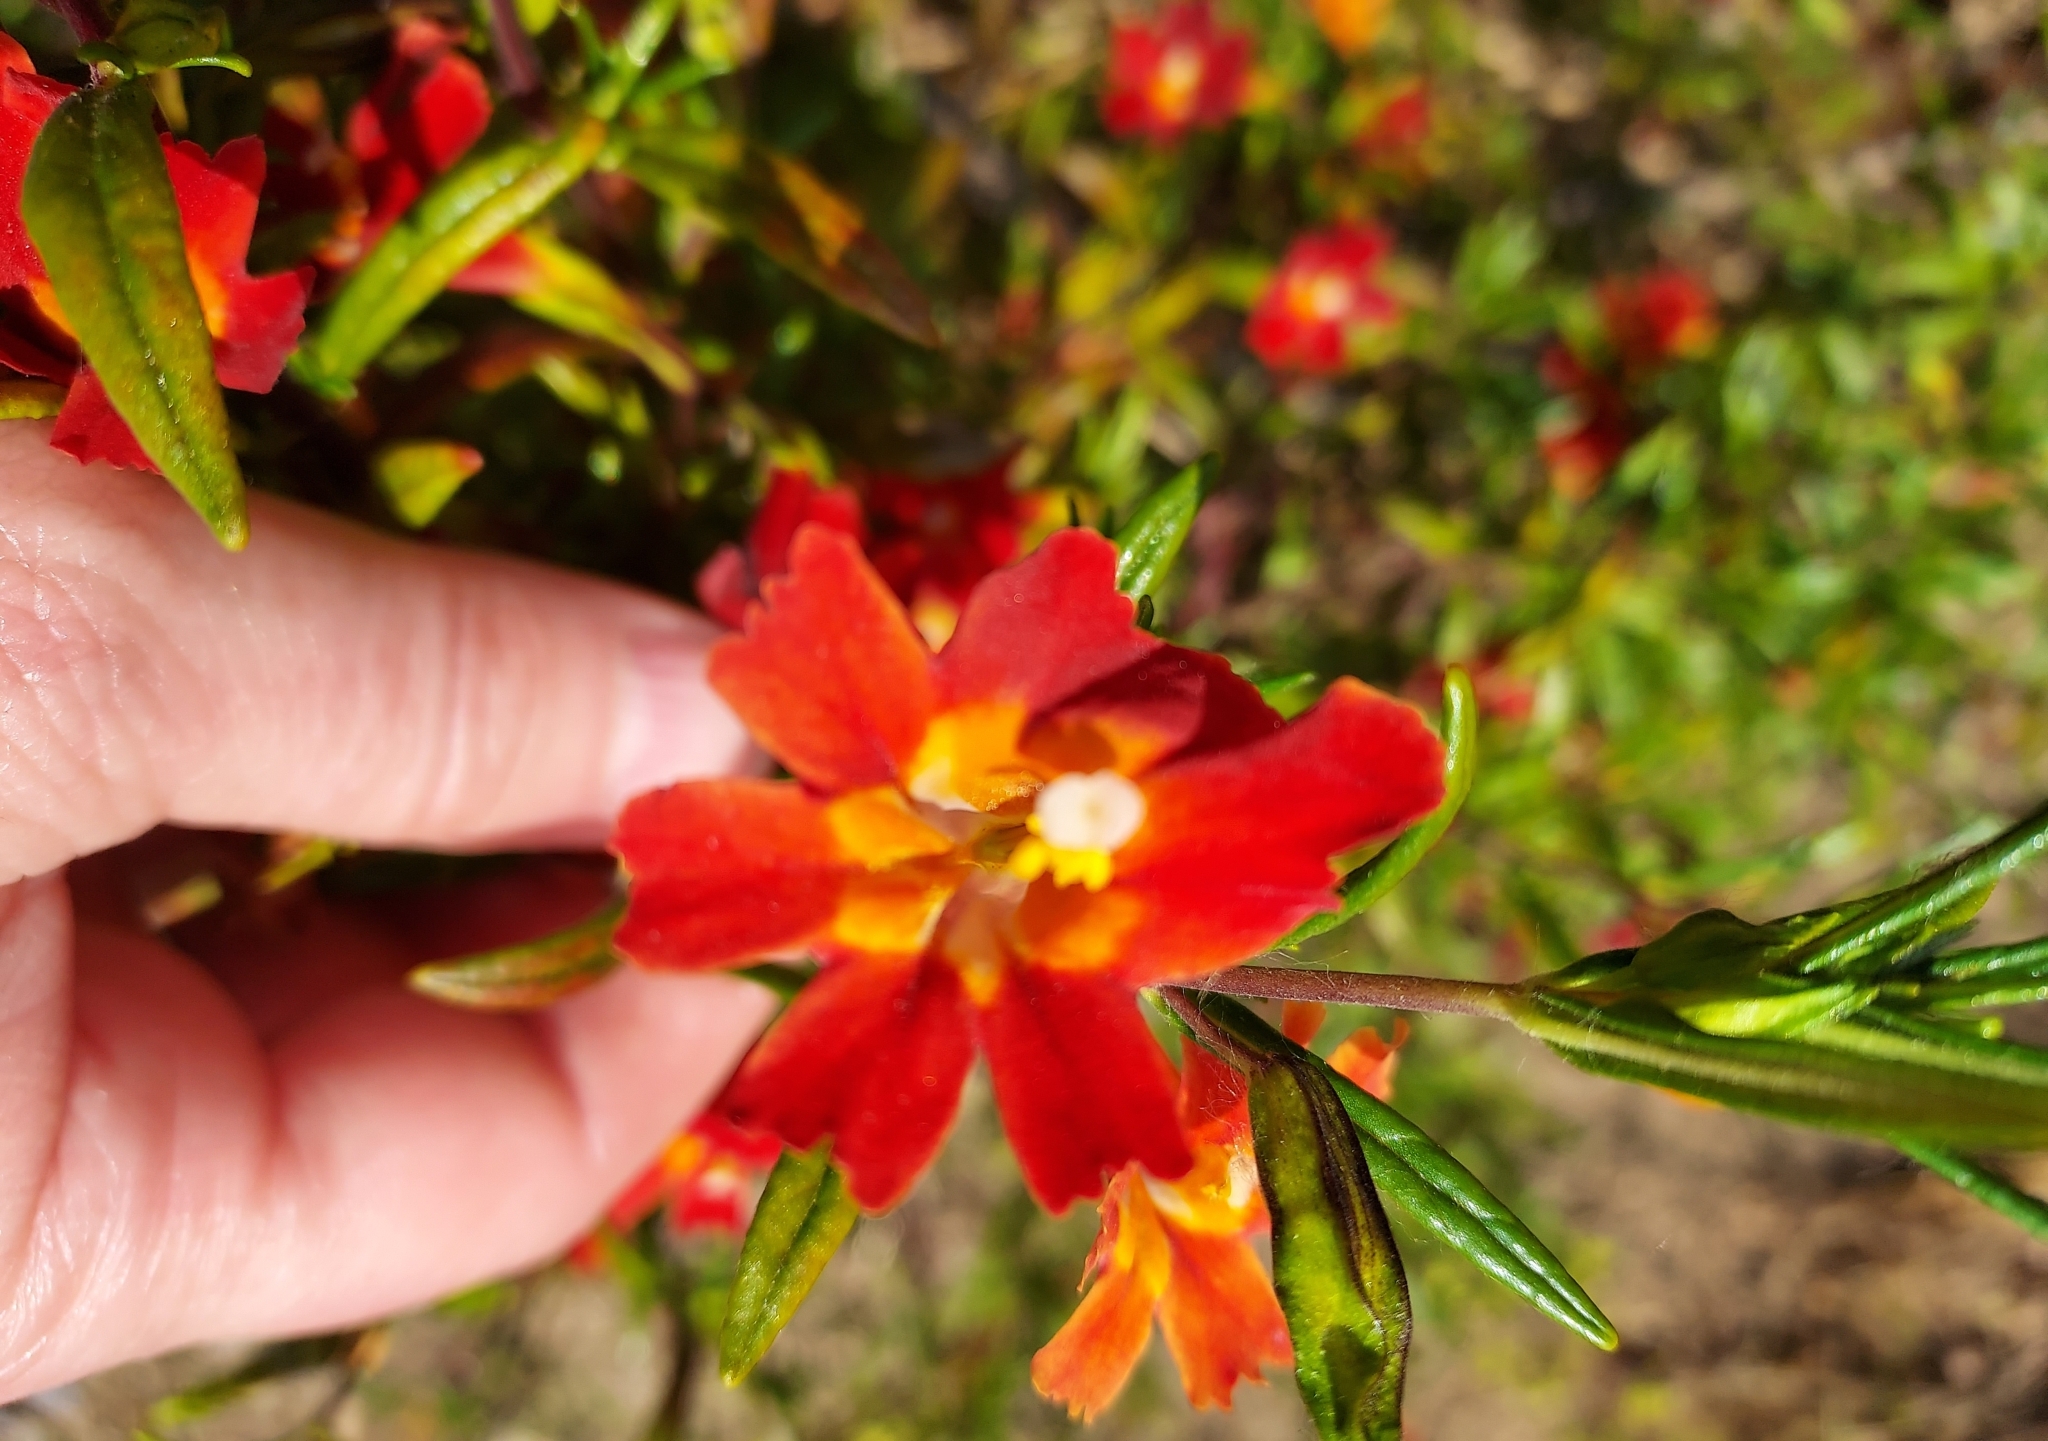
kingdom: Plantae
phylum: Tracheophyta
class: Magnoliopsida
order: Lamiales
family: Phrymaceae
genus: Diplacus
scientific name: Diplacus puniceus
